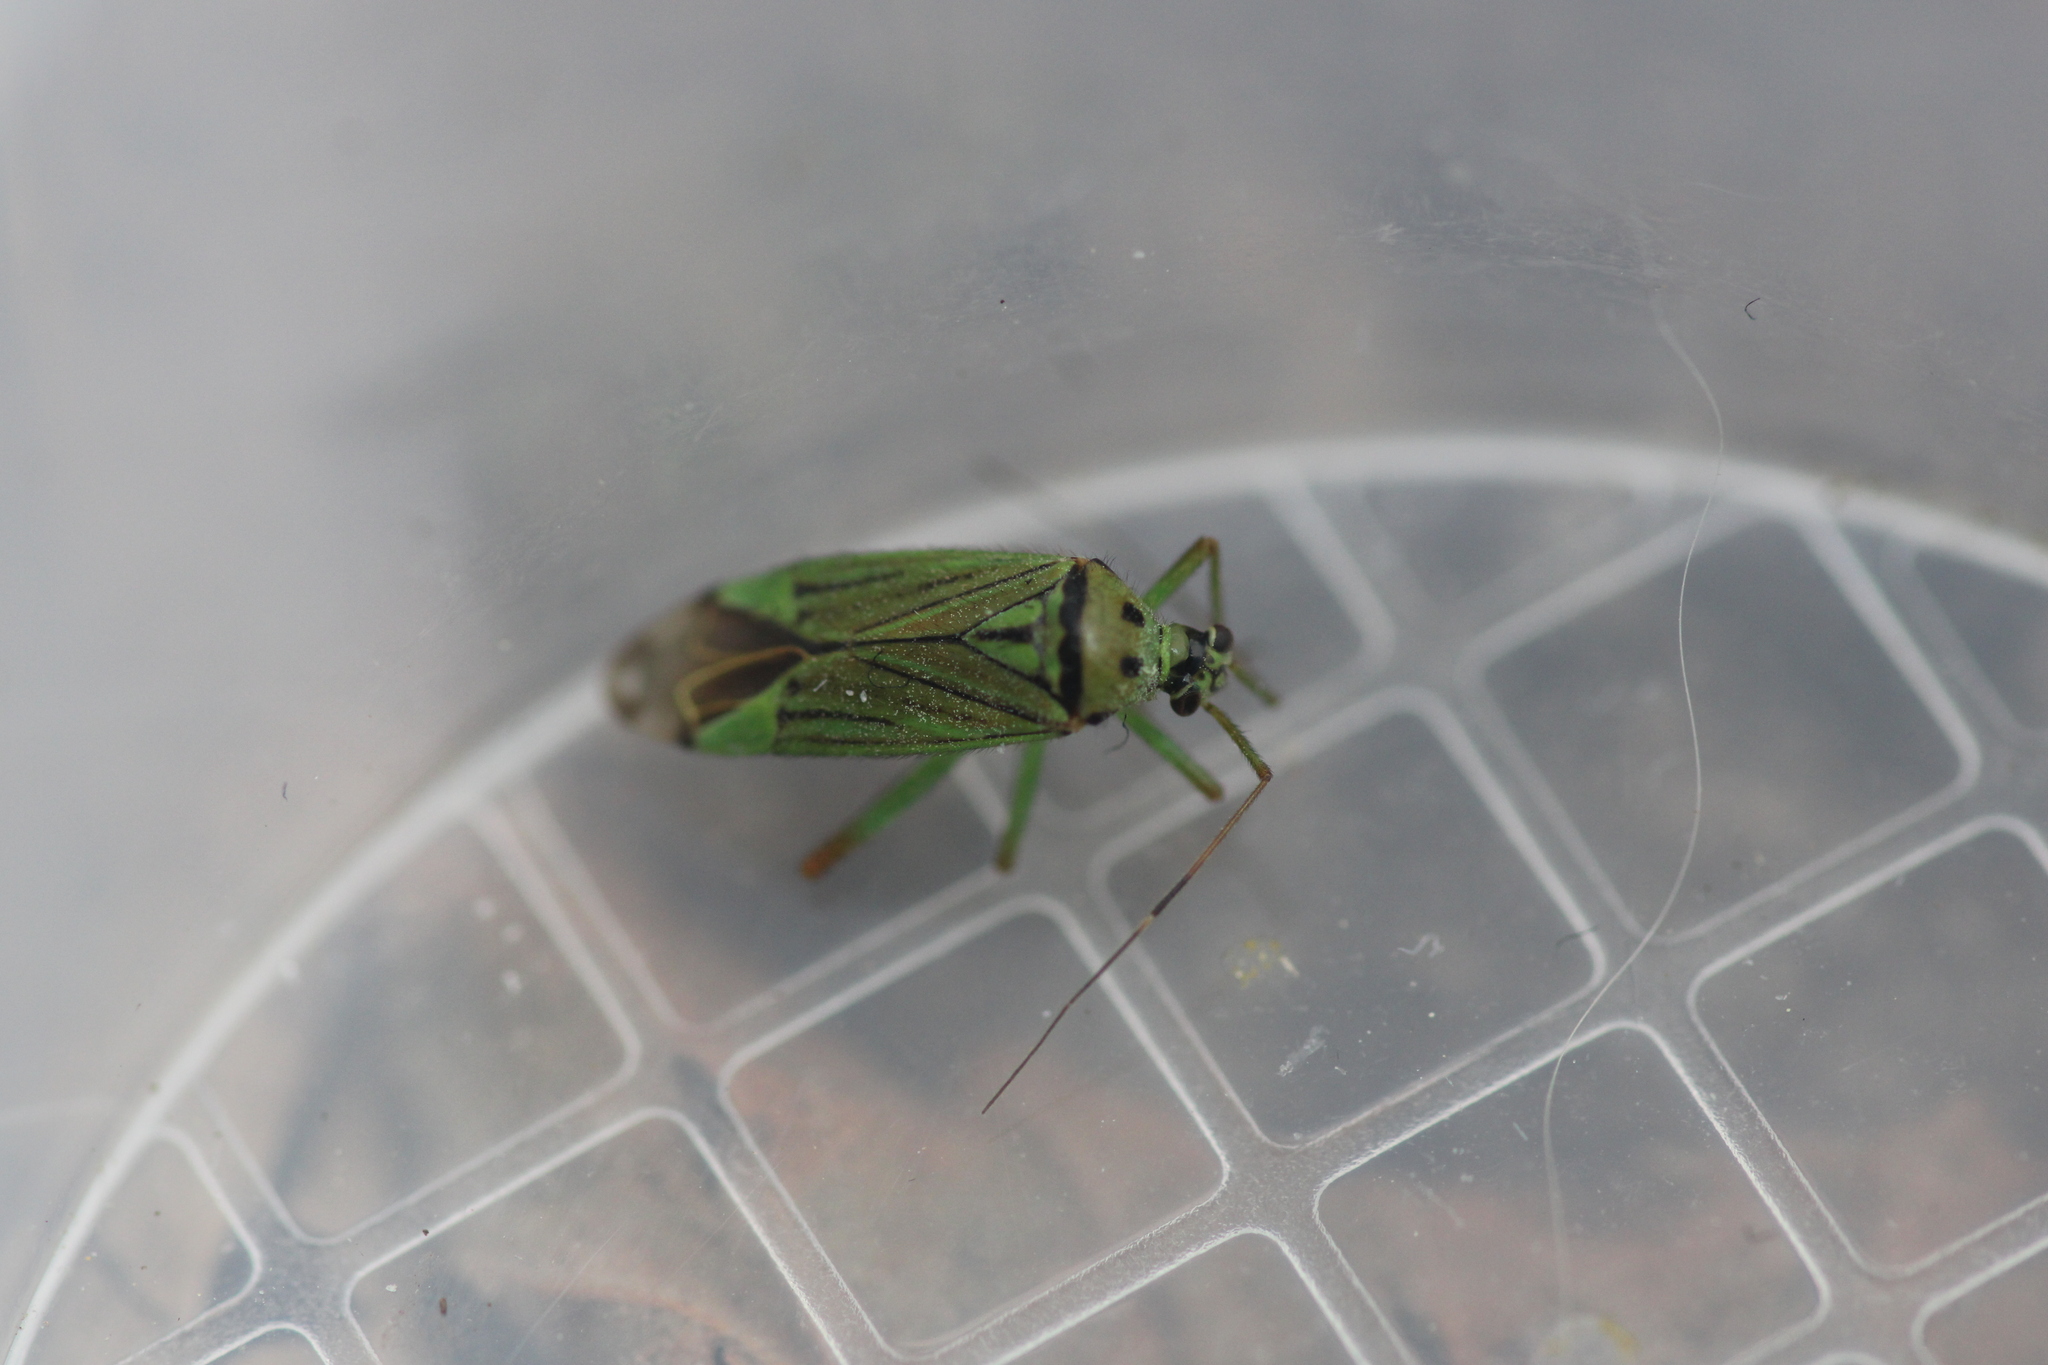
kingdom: Animalia
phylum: Arthropoda
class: Insecta
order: Hemiptera
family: Miridae
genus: Mermitelocerus
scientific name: Mermitelocerus schmidtii
